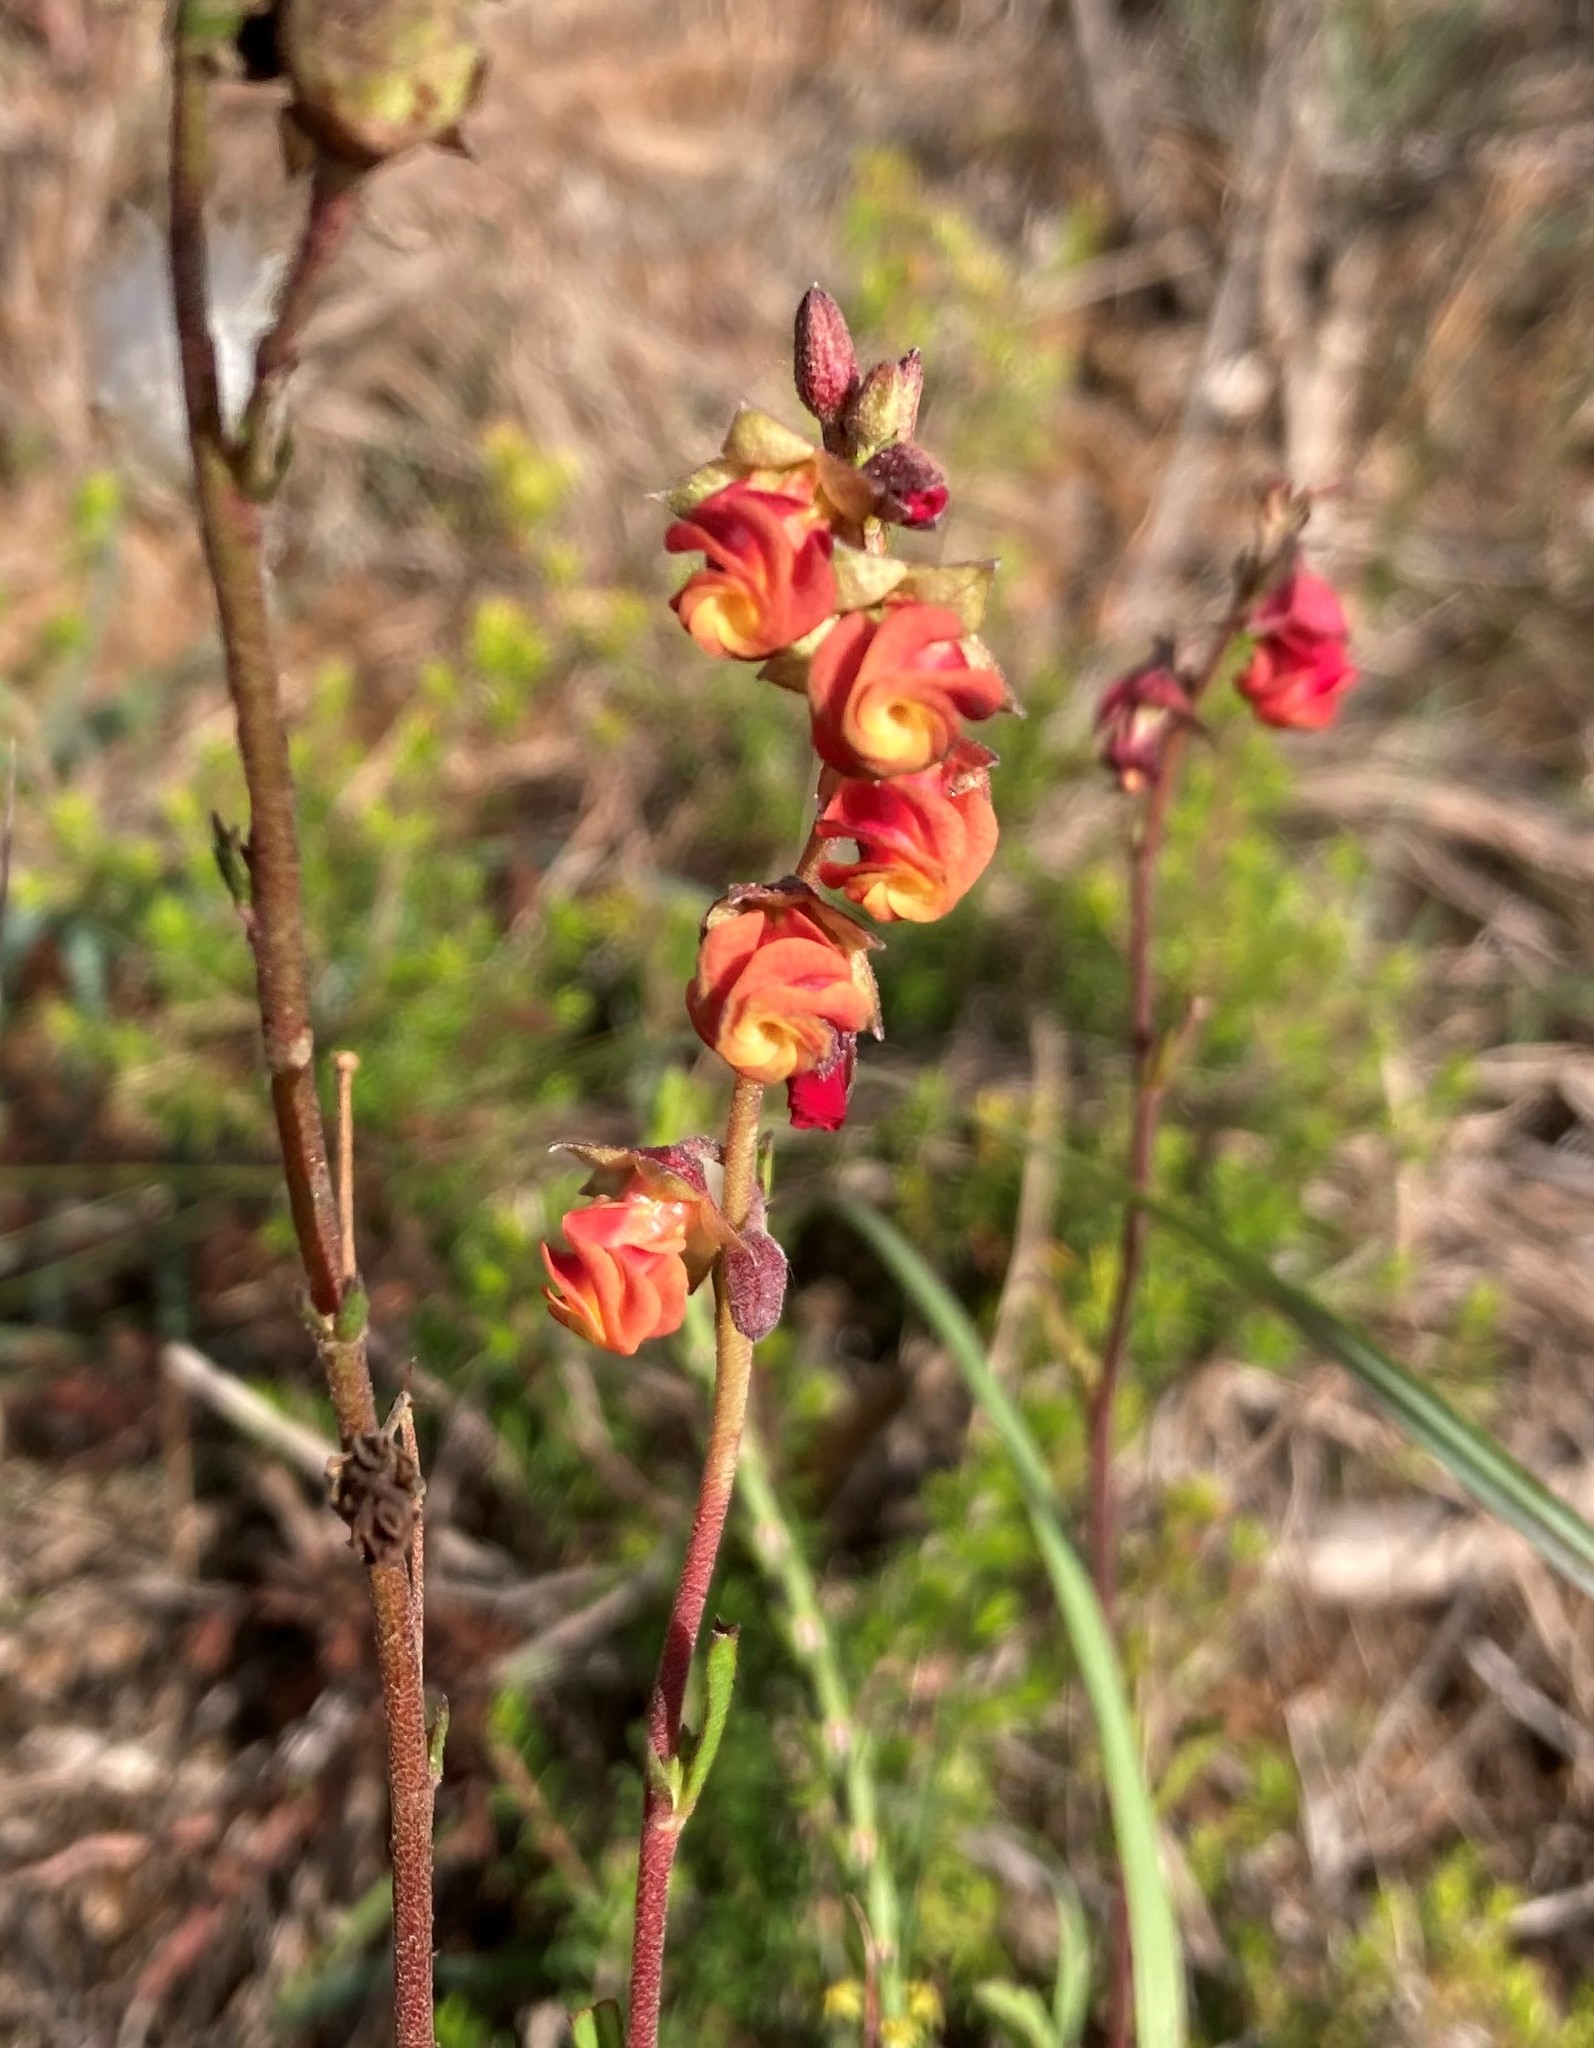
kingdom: Plantae
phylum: Tracheophyta
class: Magnoliopsida
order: Malvales
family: Malvaceae
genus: Hermannia
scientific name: Hermannia angularis
